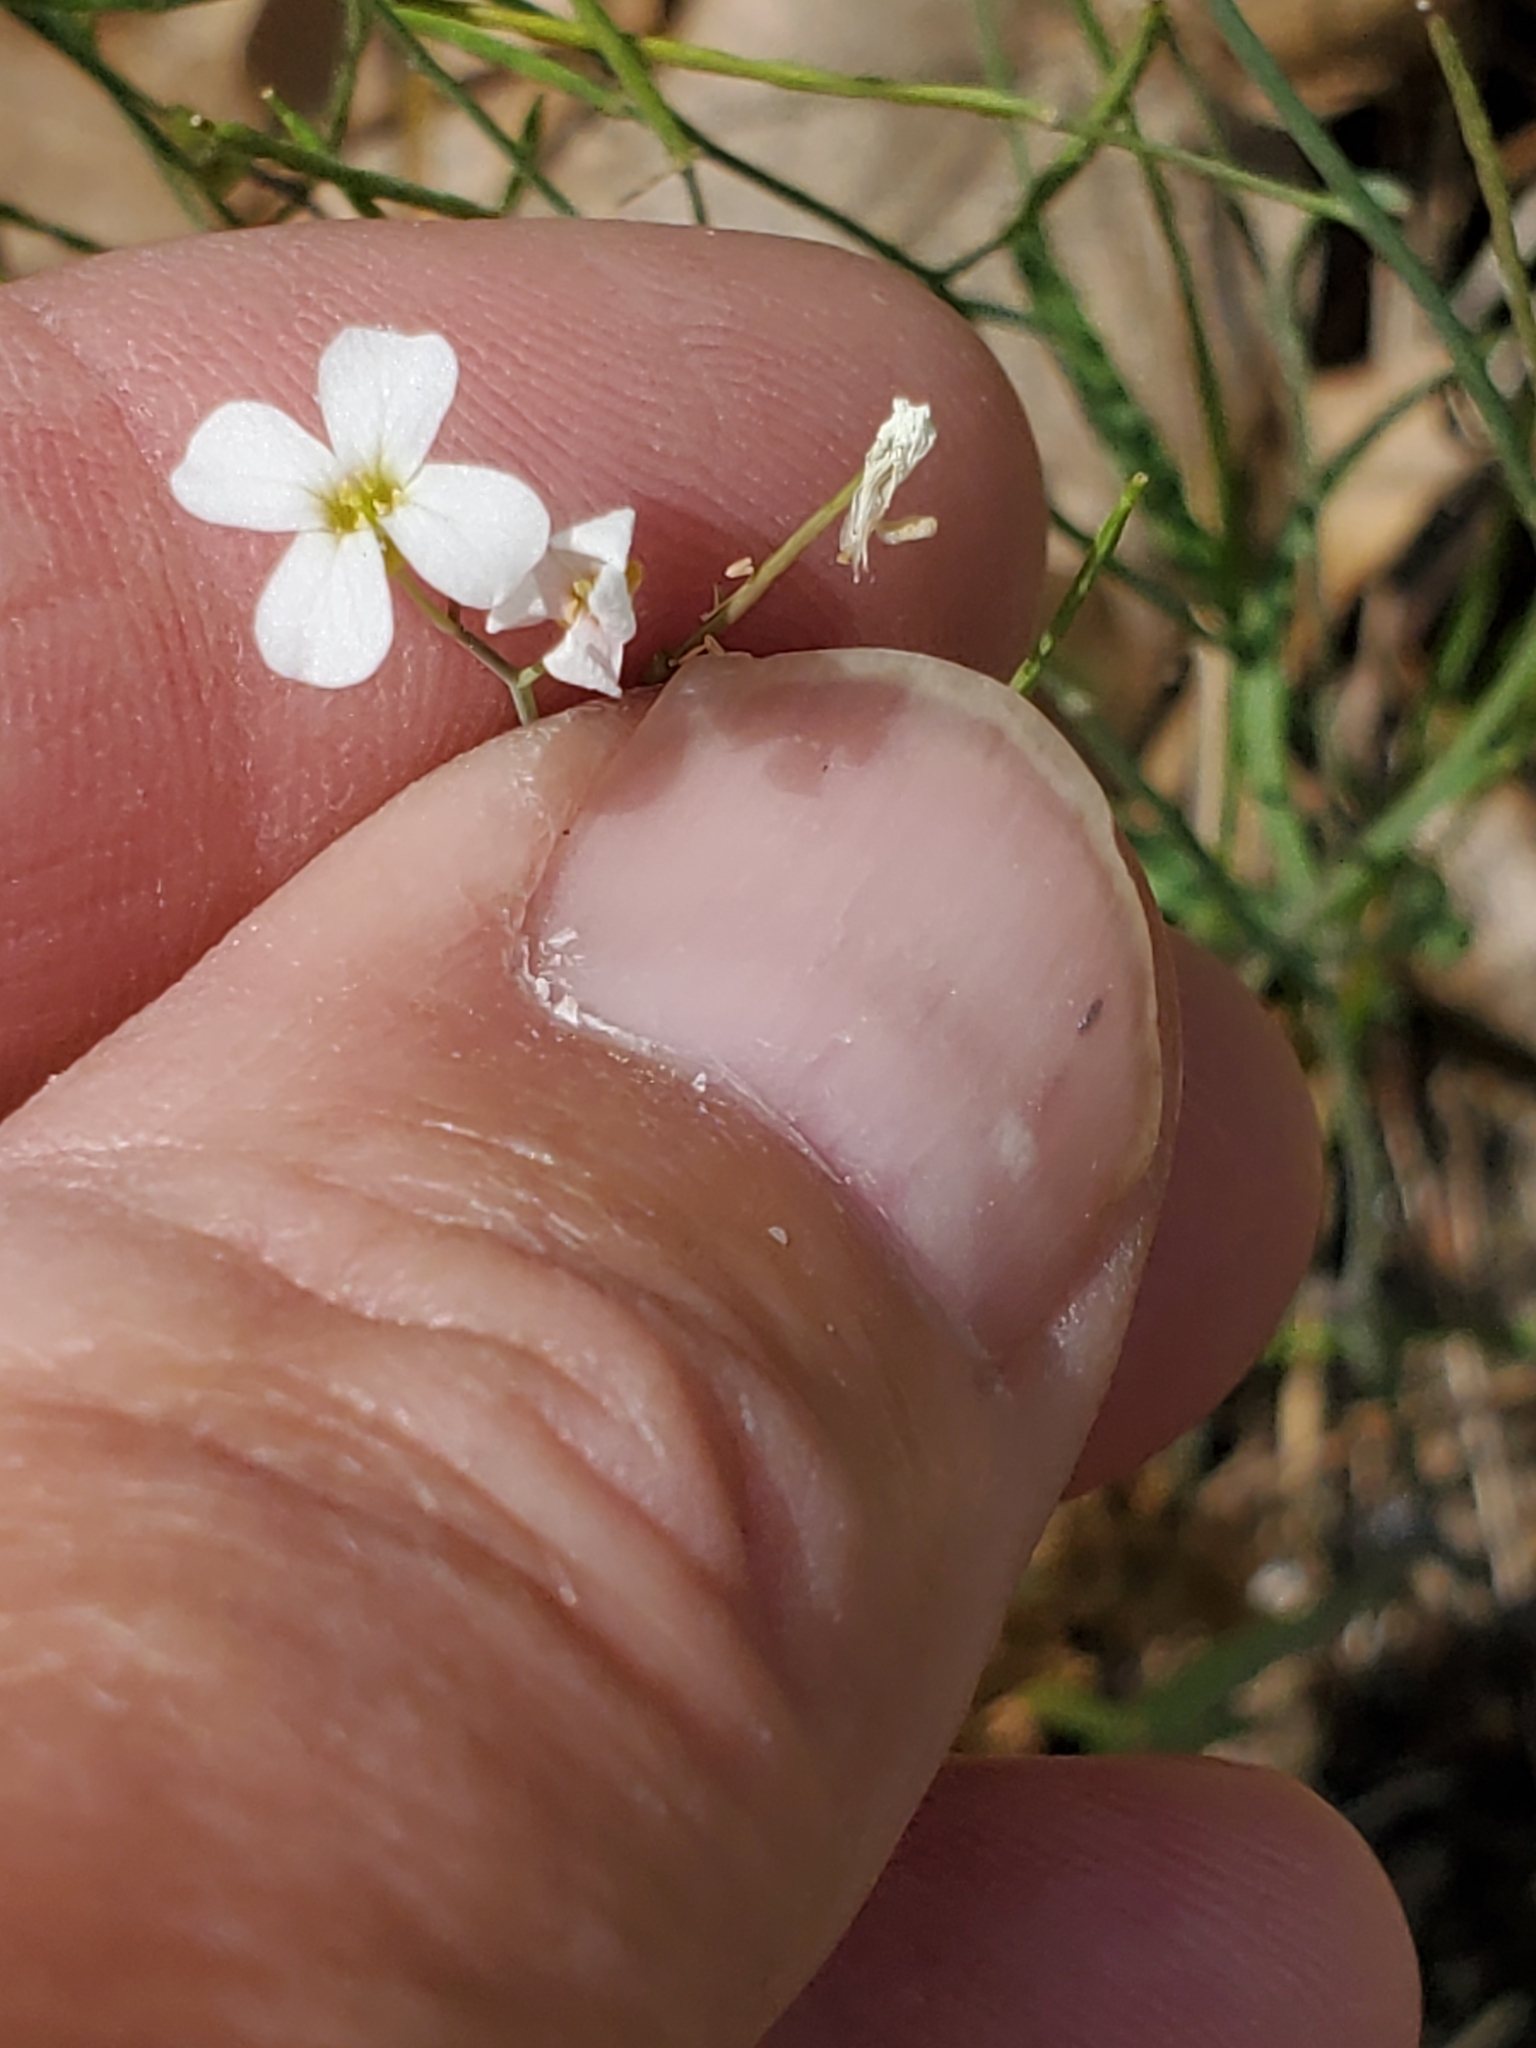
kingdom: Plantae
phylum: Tracheophyta
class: Magnoliopsida
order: Brassicales
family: Brassicaceae
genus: Arabidopsis
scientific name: Arabidopsis lyrata
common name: Lyrate rockcress
